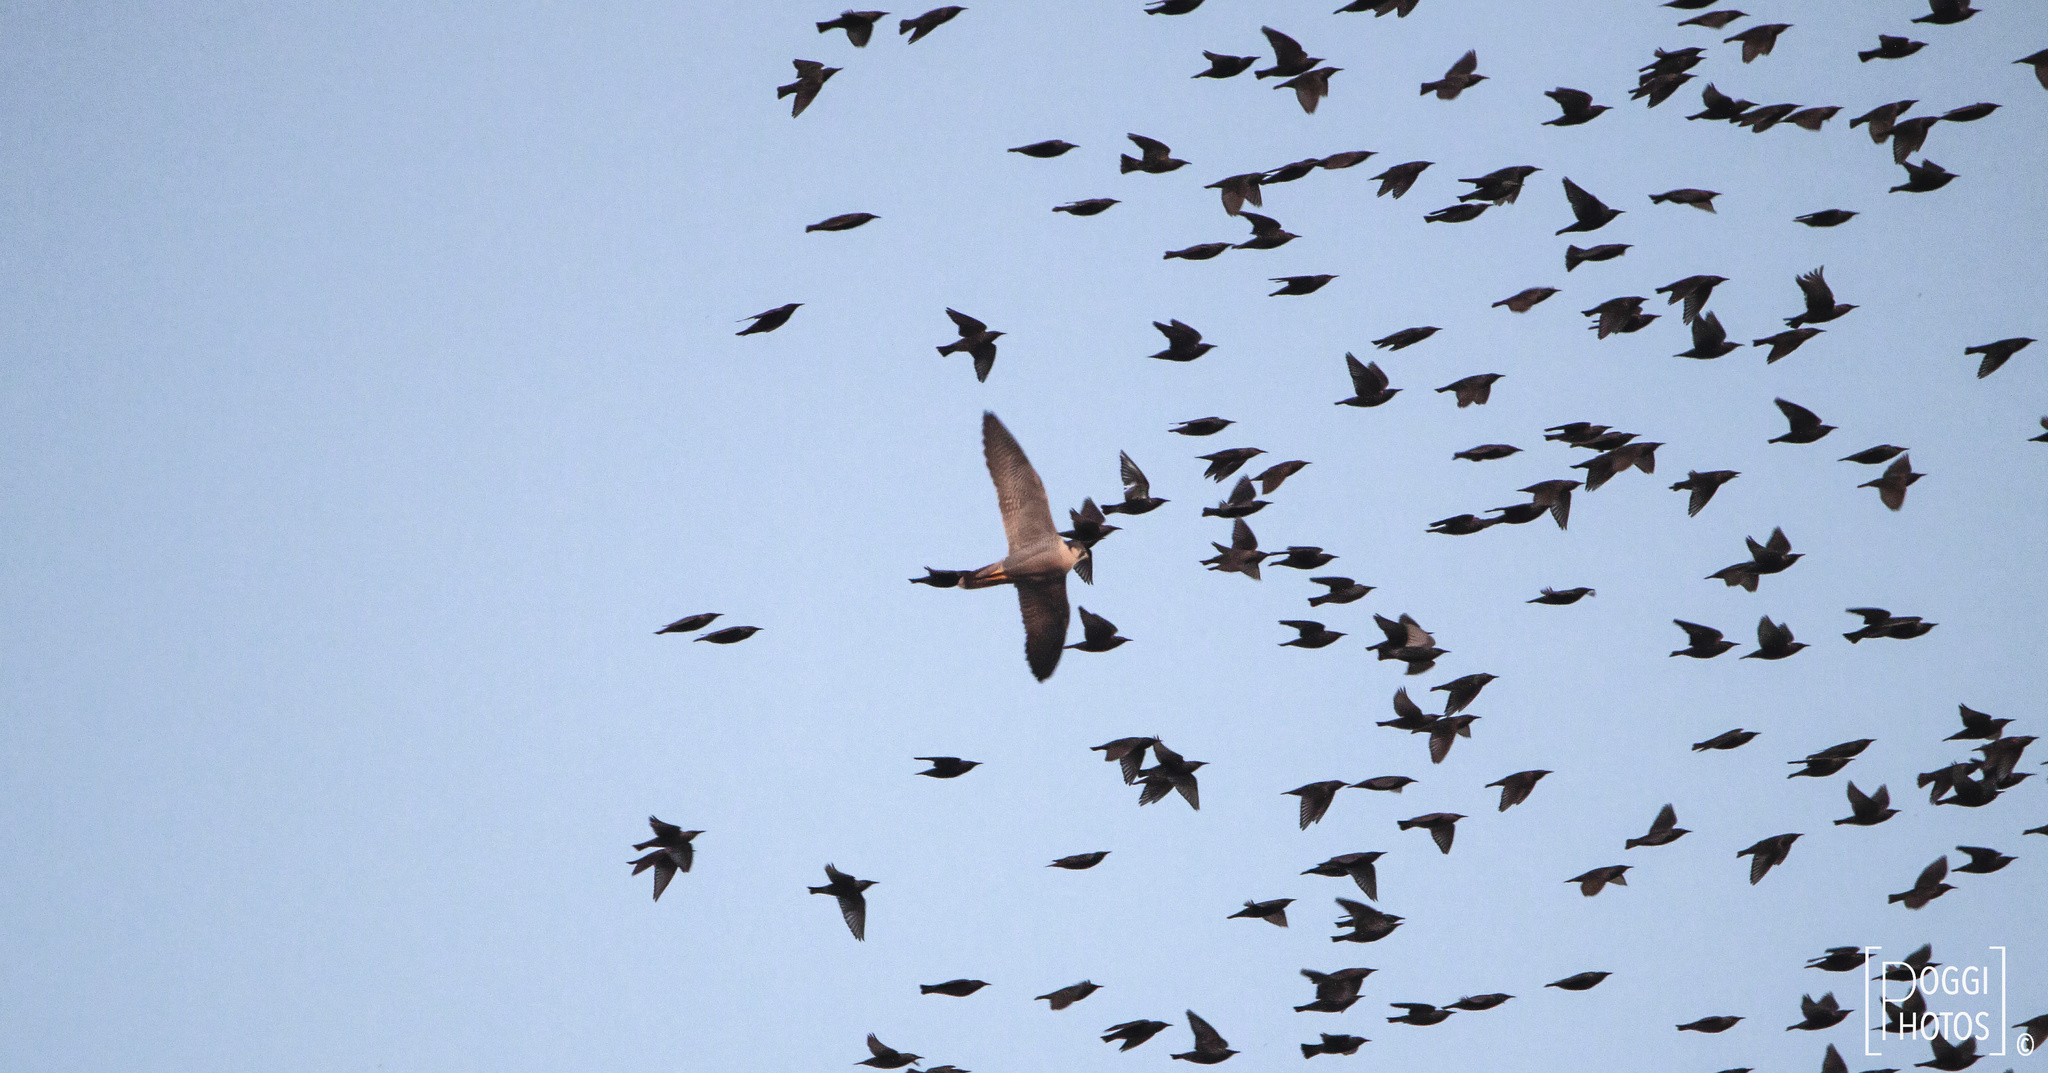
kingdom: Animalia
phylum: Chordata
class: Aves
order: Falconiformes
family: Falconidae
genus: Falco
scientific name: Falco peregrinus
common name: Peregrine falcon
